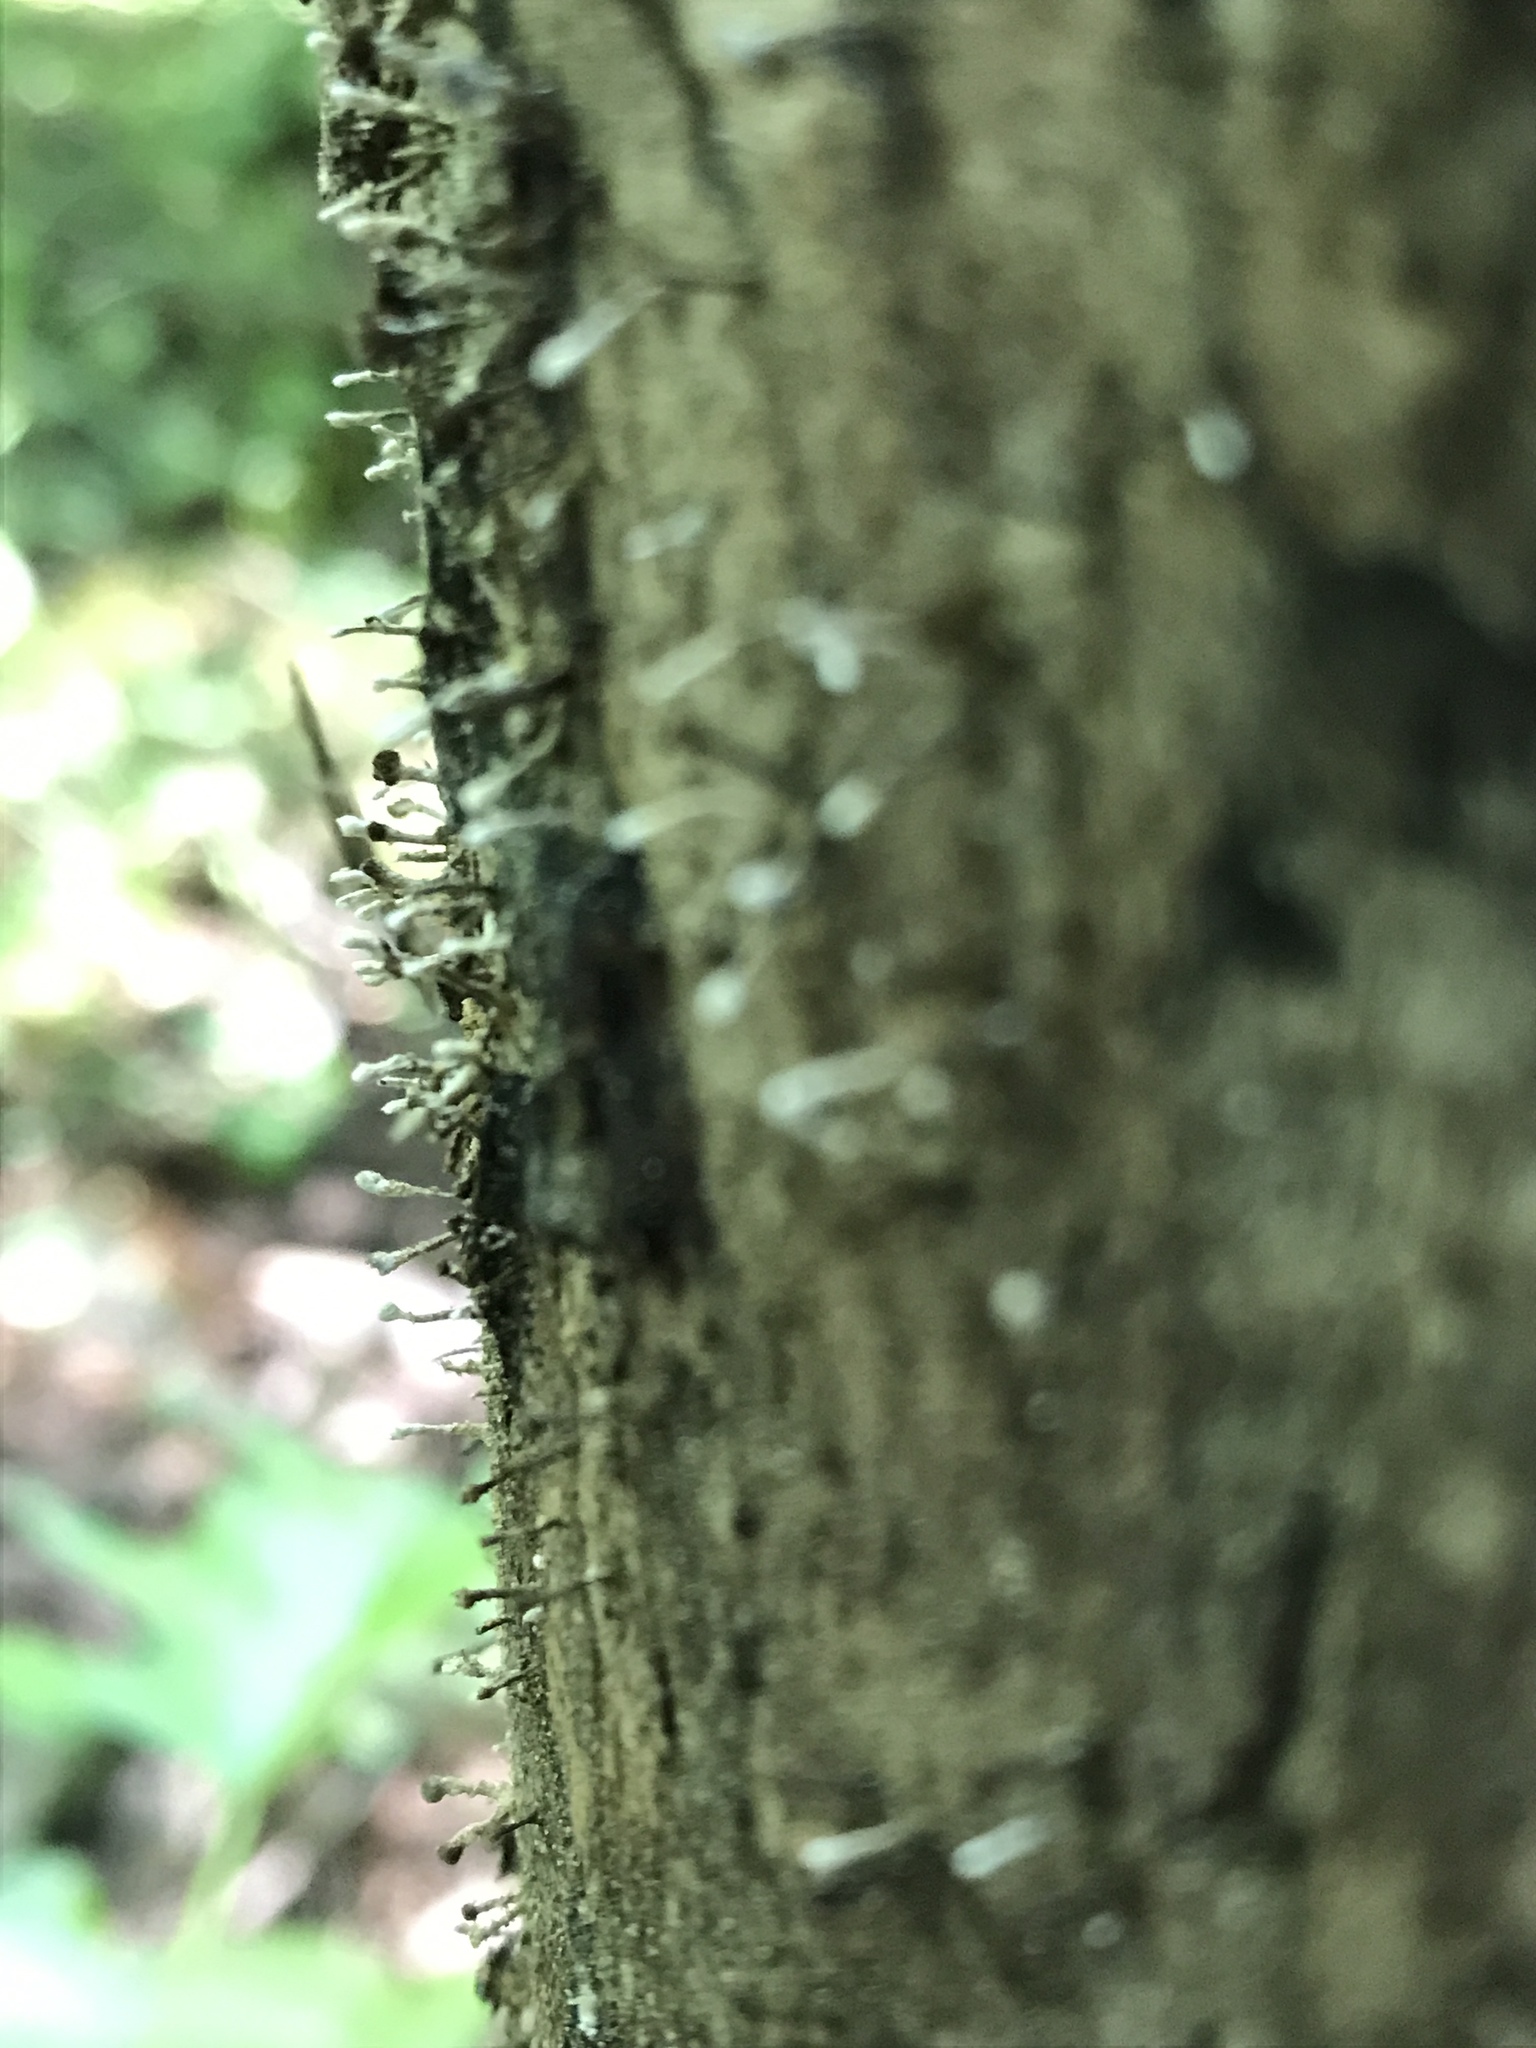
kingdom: Fungi
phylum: Basidiomycota
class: Atractiellomycetes
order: Atractiellales
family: Phleogenaceae
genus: Phleogena
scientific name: Phleogena faginea
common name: Fenugreek stalkball
